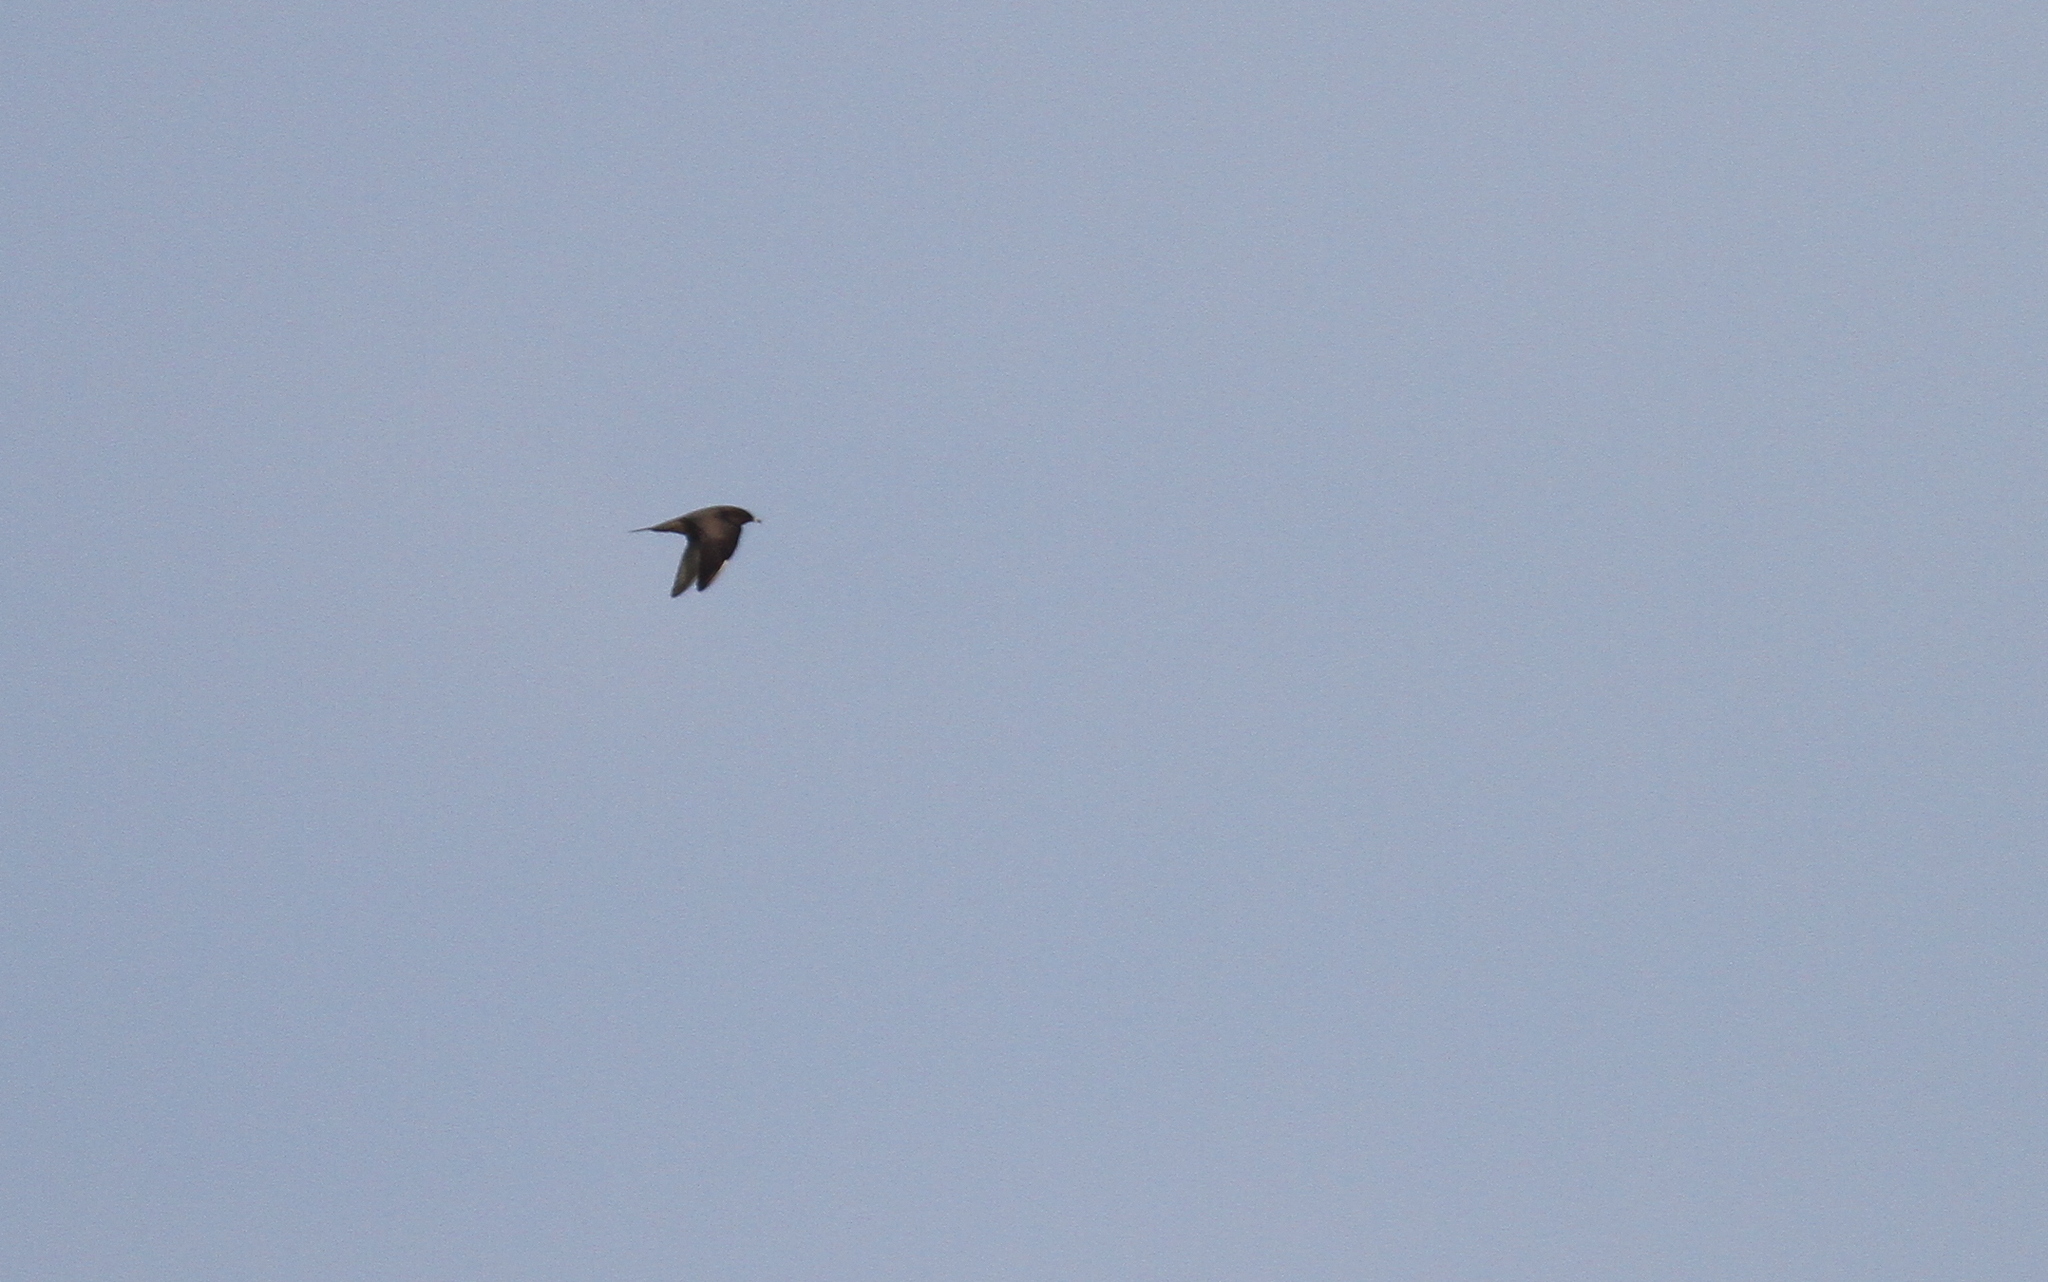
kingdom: Animalia
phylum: Chordata
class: Aves
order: Charadriiformes
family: Stercorariidae
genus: Stercorarius
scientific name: Stercorarius pomarinus
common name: Pomarine jaeger
